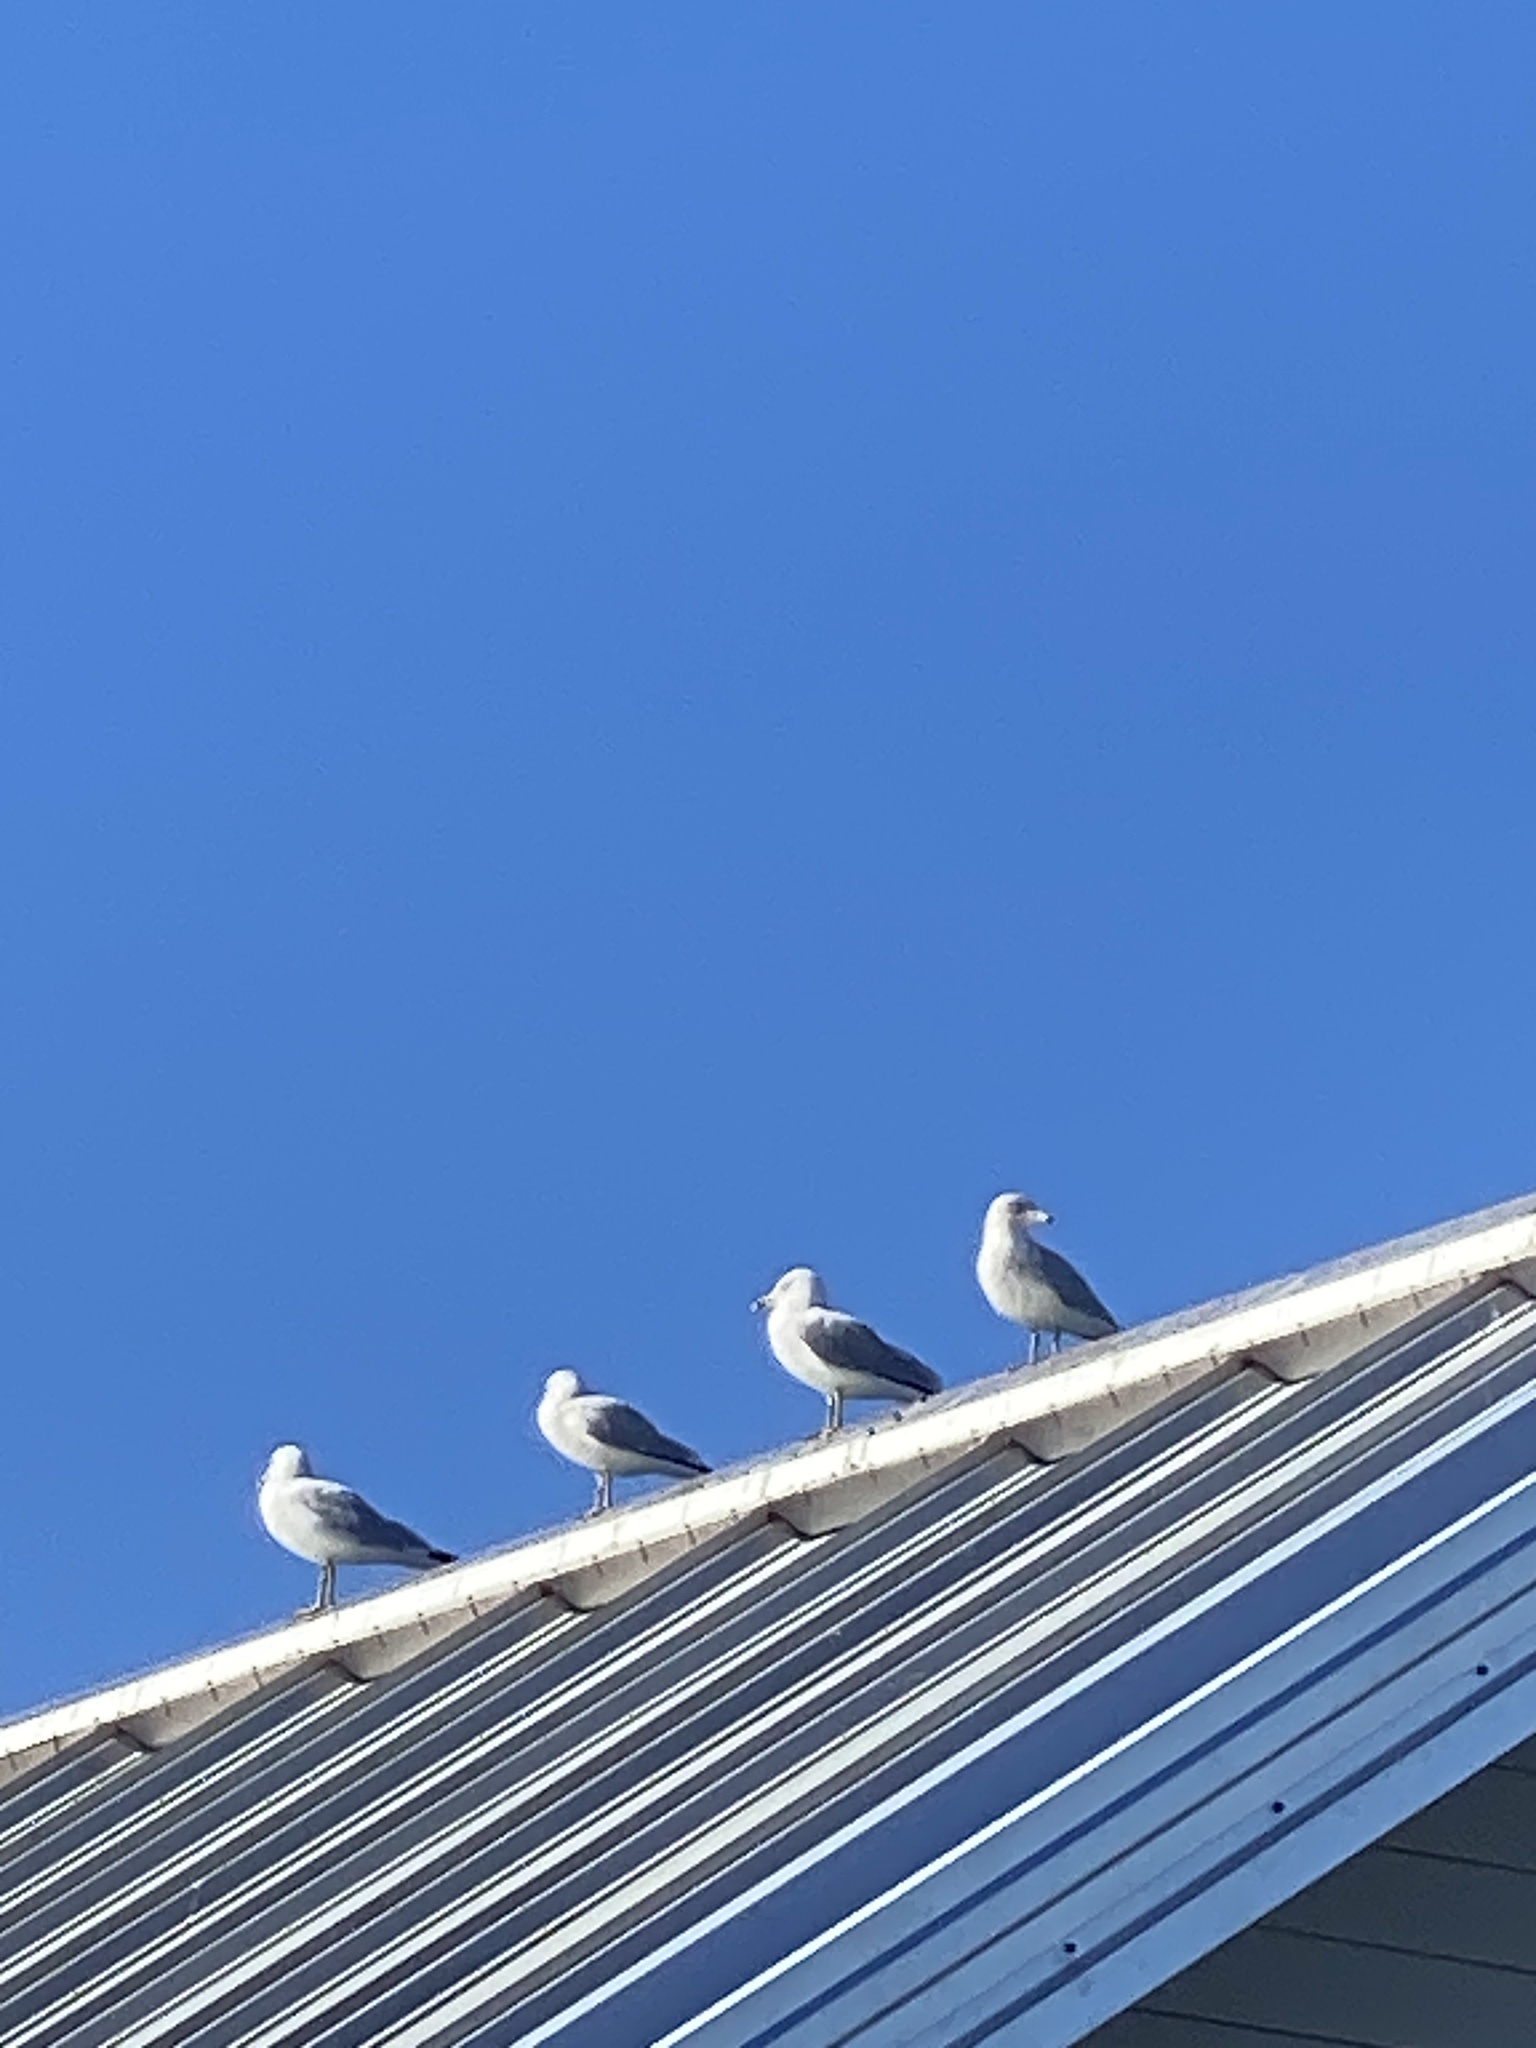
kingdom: Animalia
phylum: Chordata
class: Aves
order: Charadriiformes
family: Laridae
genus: Larus
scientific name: Larus delawarensis
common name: Ring-billed gull
